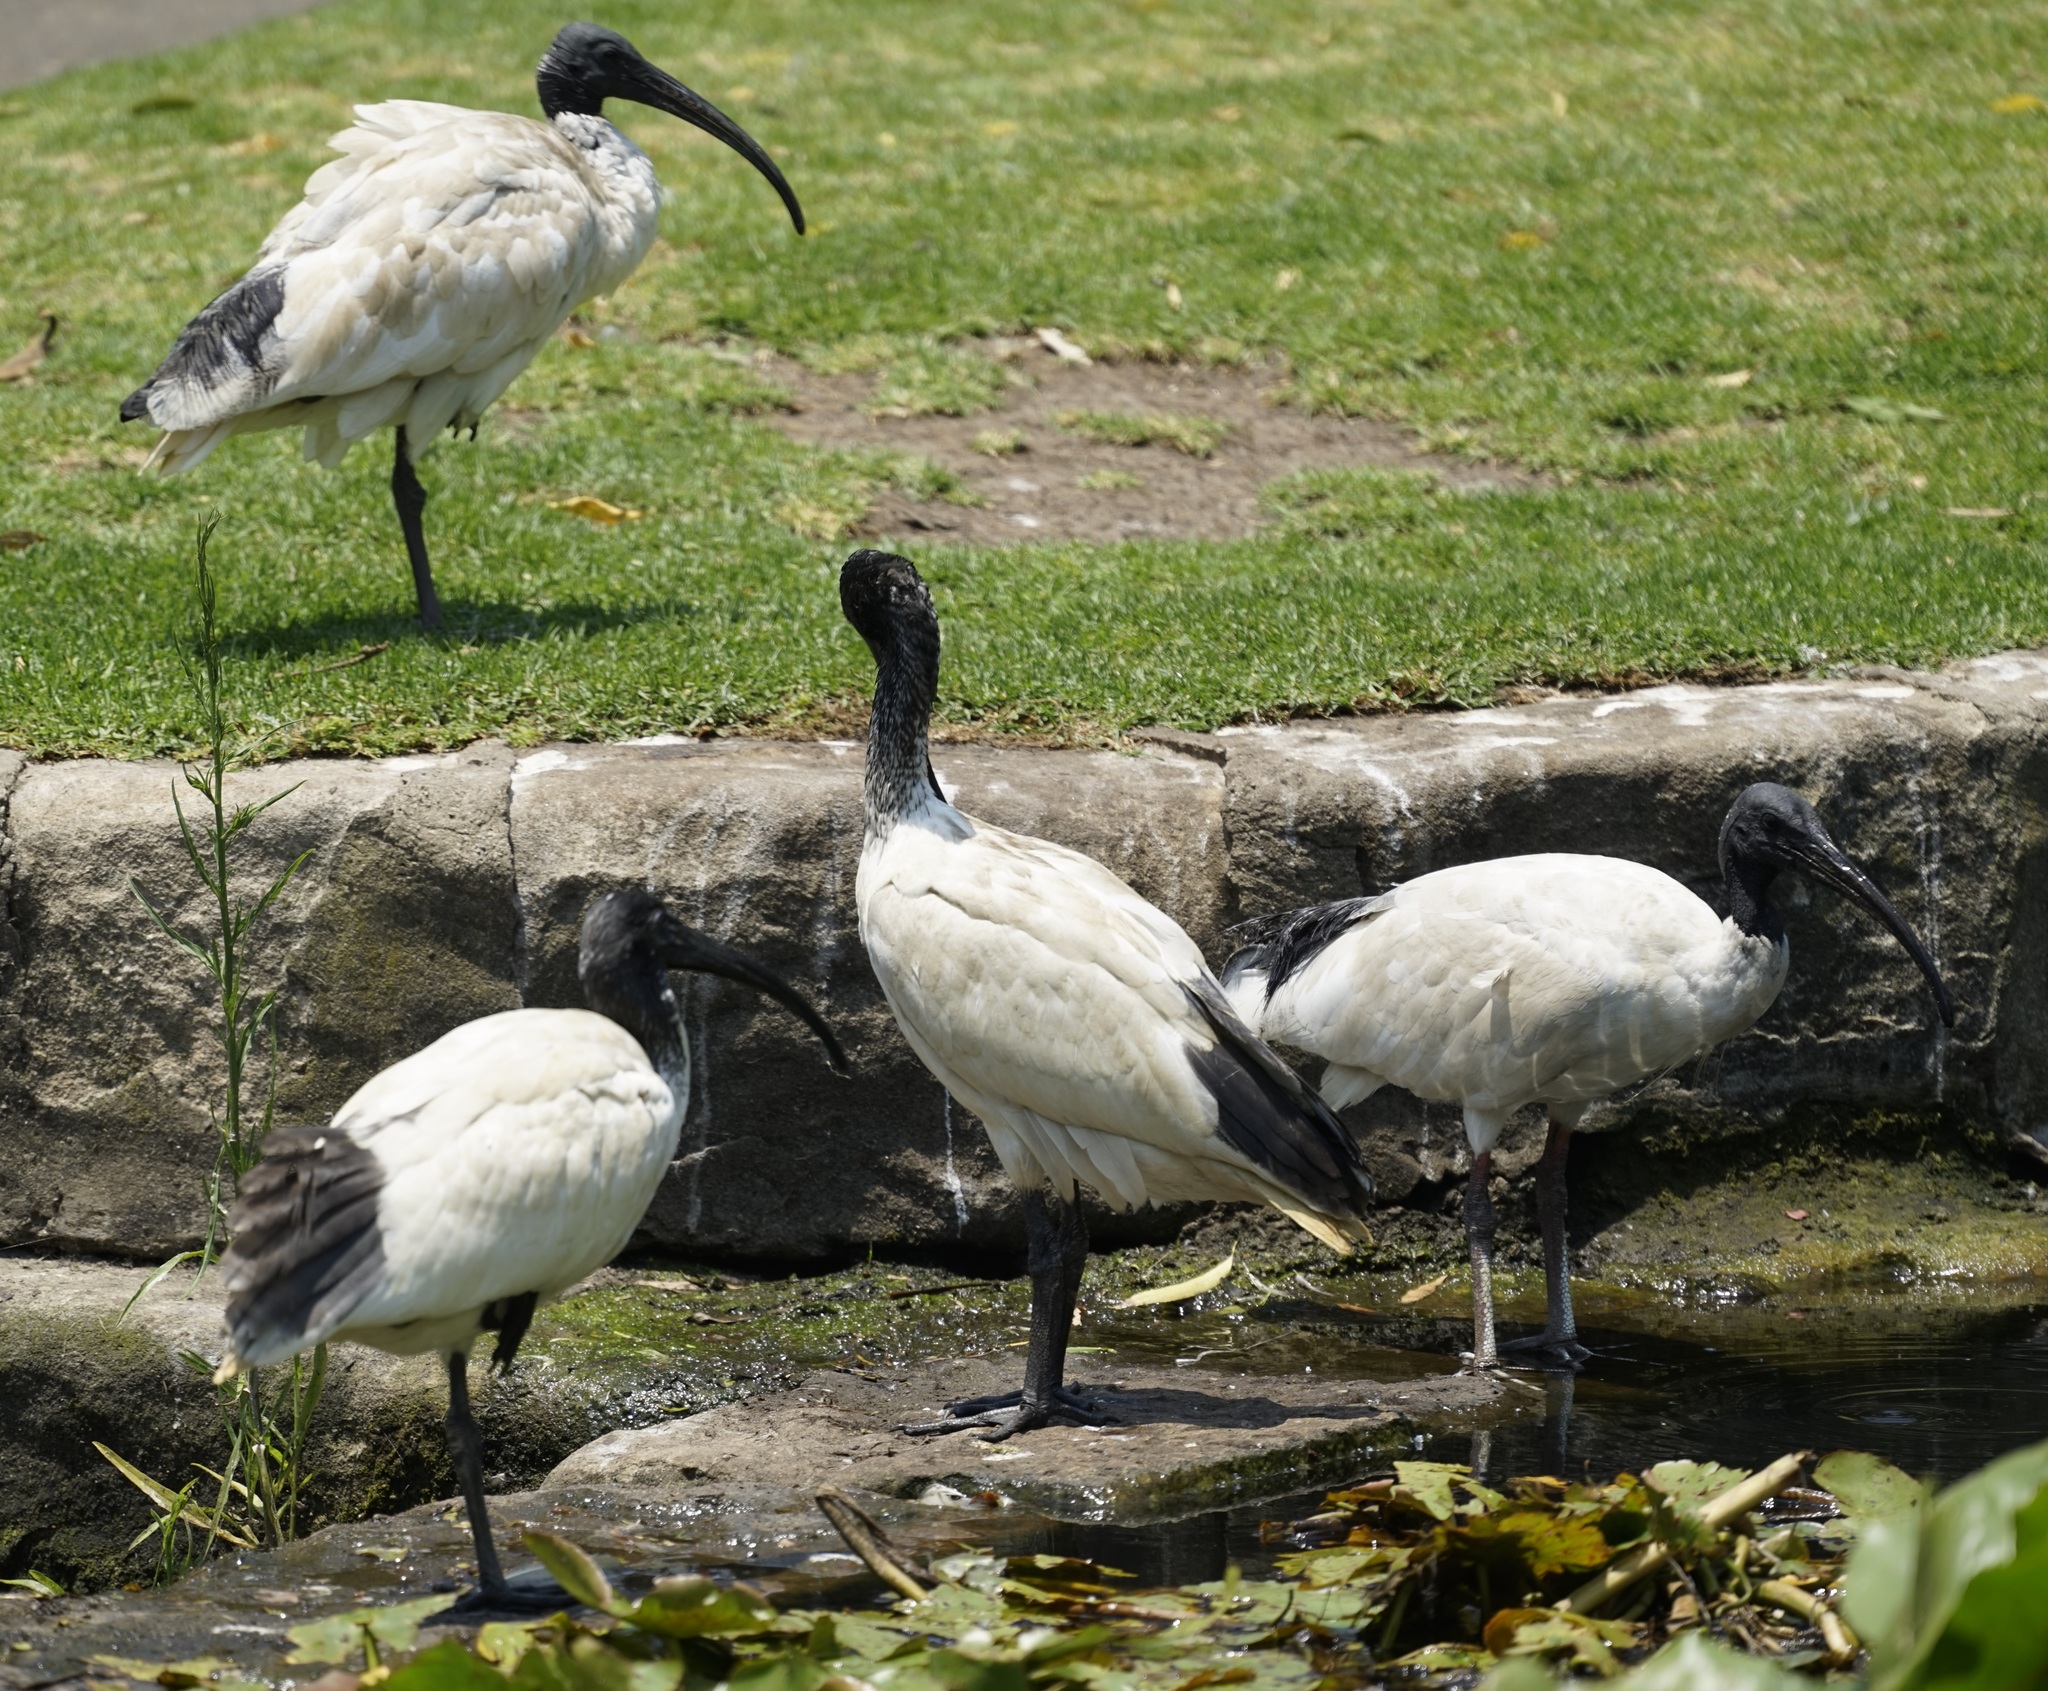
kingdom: Animalia
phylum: Chordata
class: Aves
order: Pelecaniformes
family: Threskiornithidae
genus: Threskiornis
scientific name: Threskiornis molucca
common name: Australian white ibis
